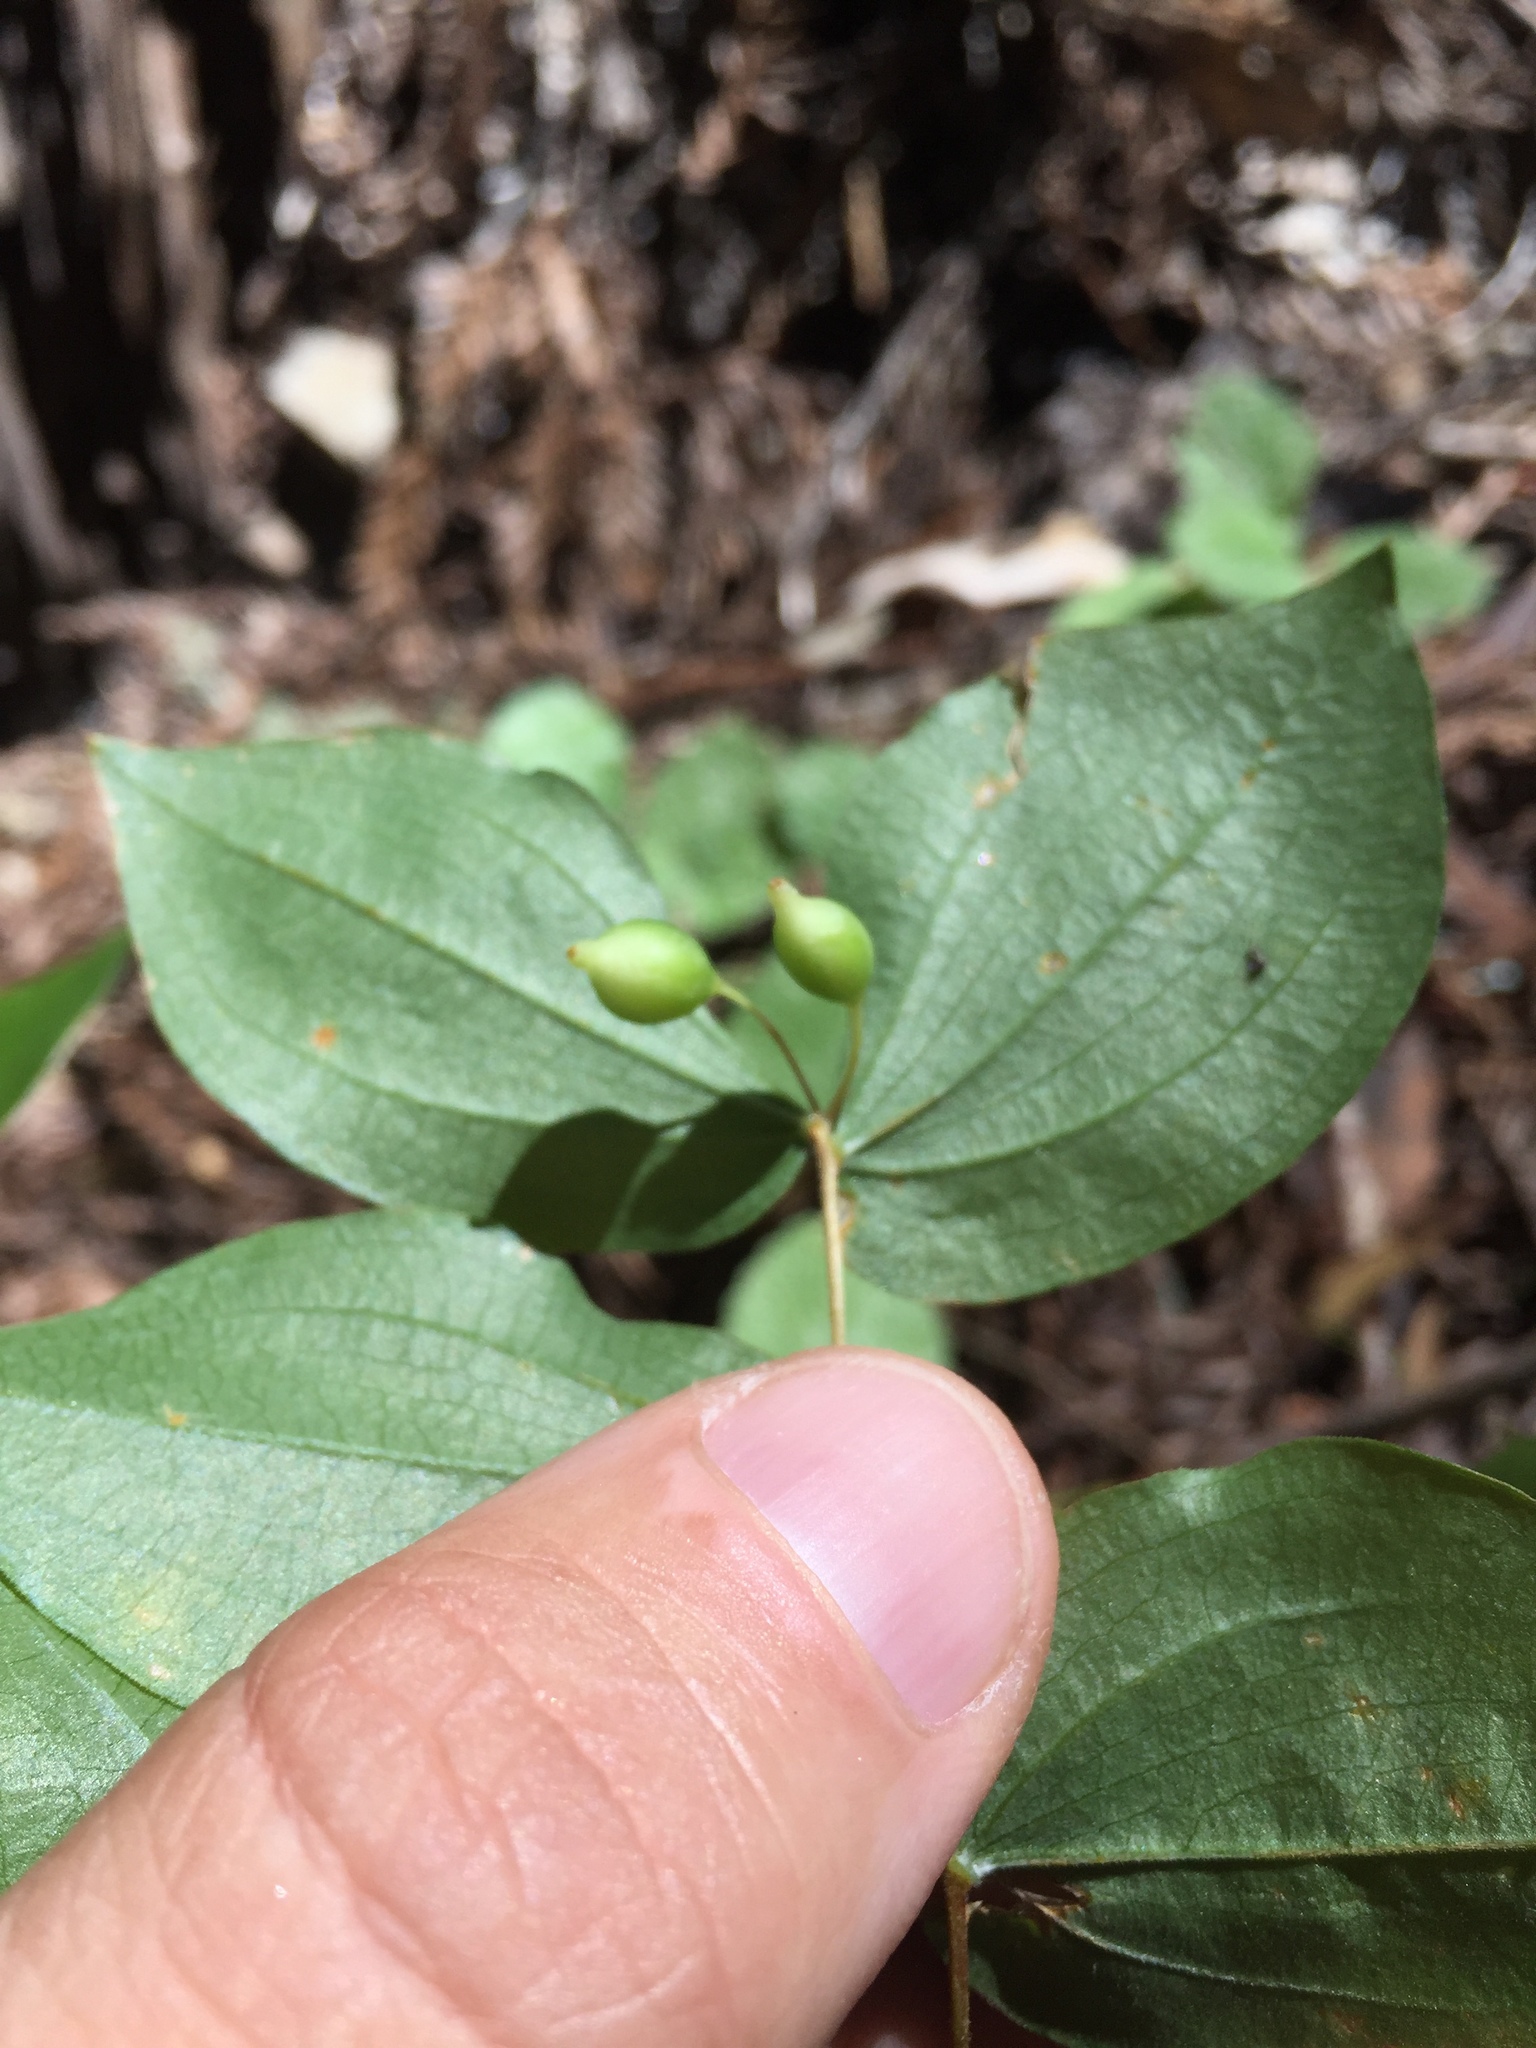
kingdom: Plantae
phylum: Tracheophyta
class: Liliopsida
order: Liliales
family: Liliaceae
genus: Prosartes
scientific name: Prosartes hookeri
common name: Fairy-bells
